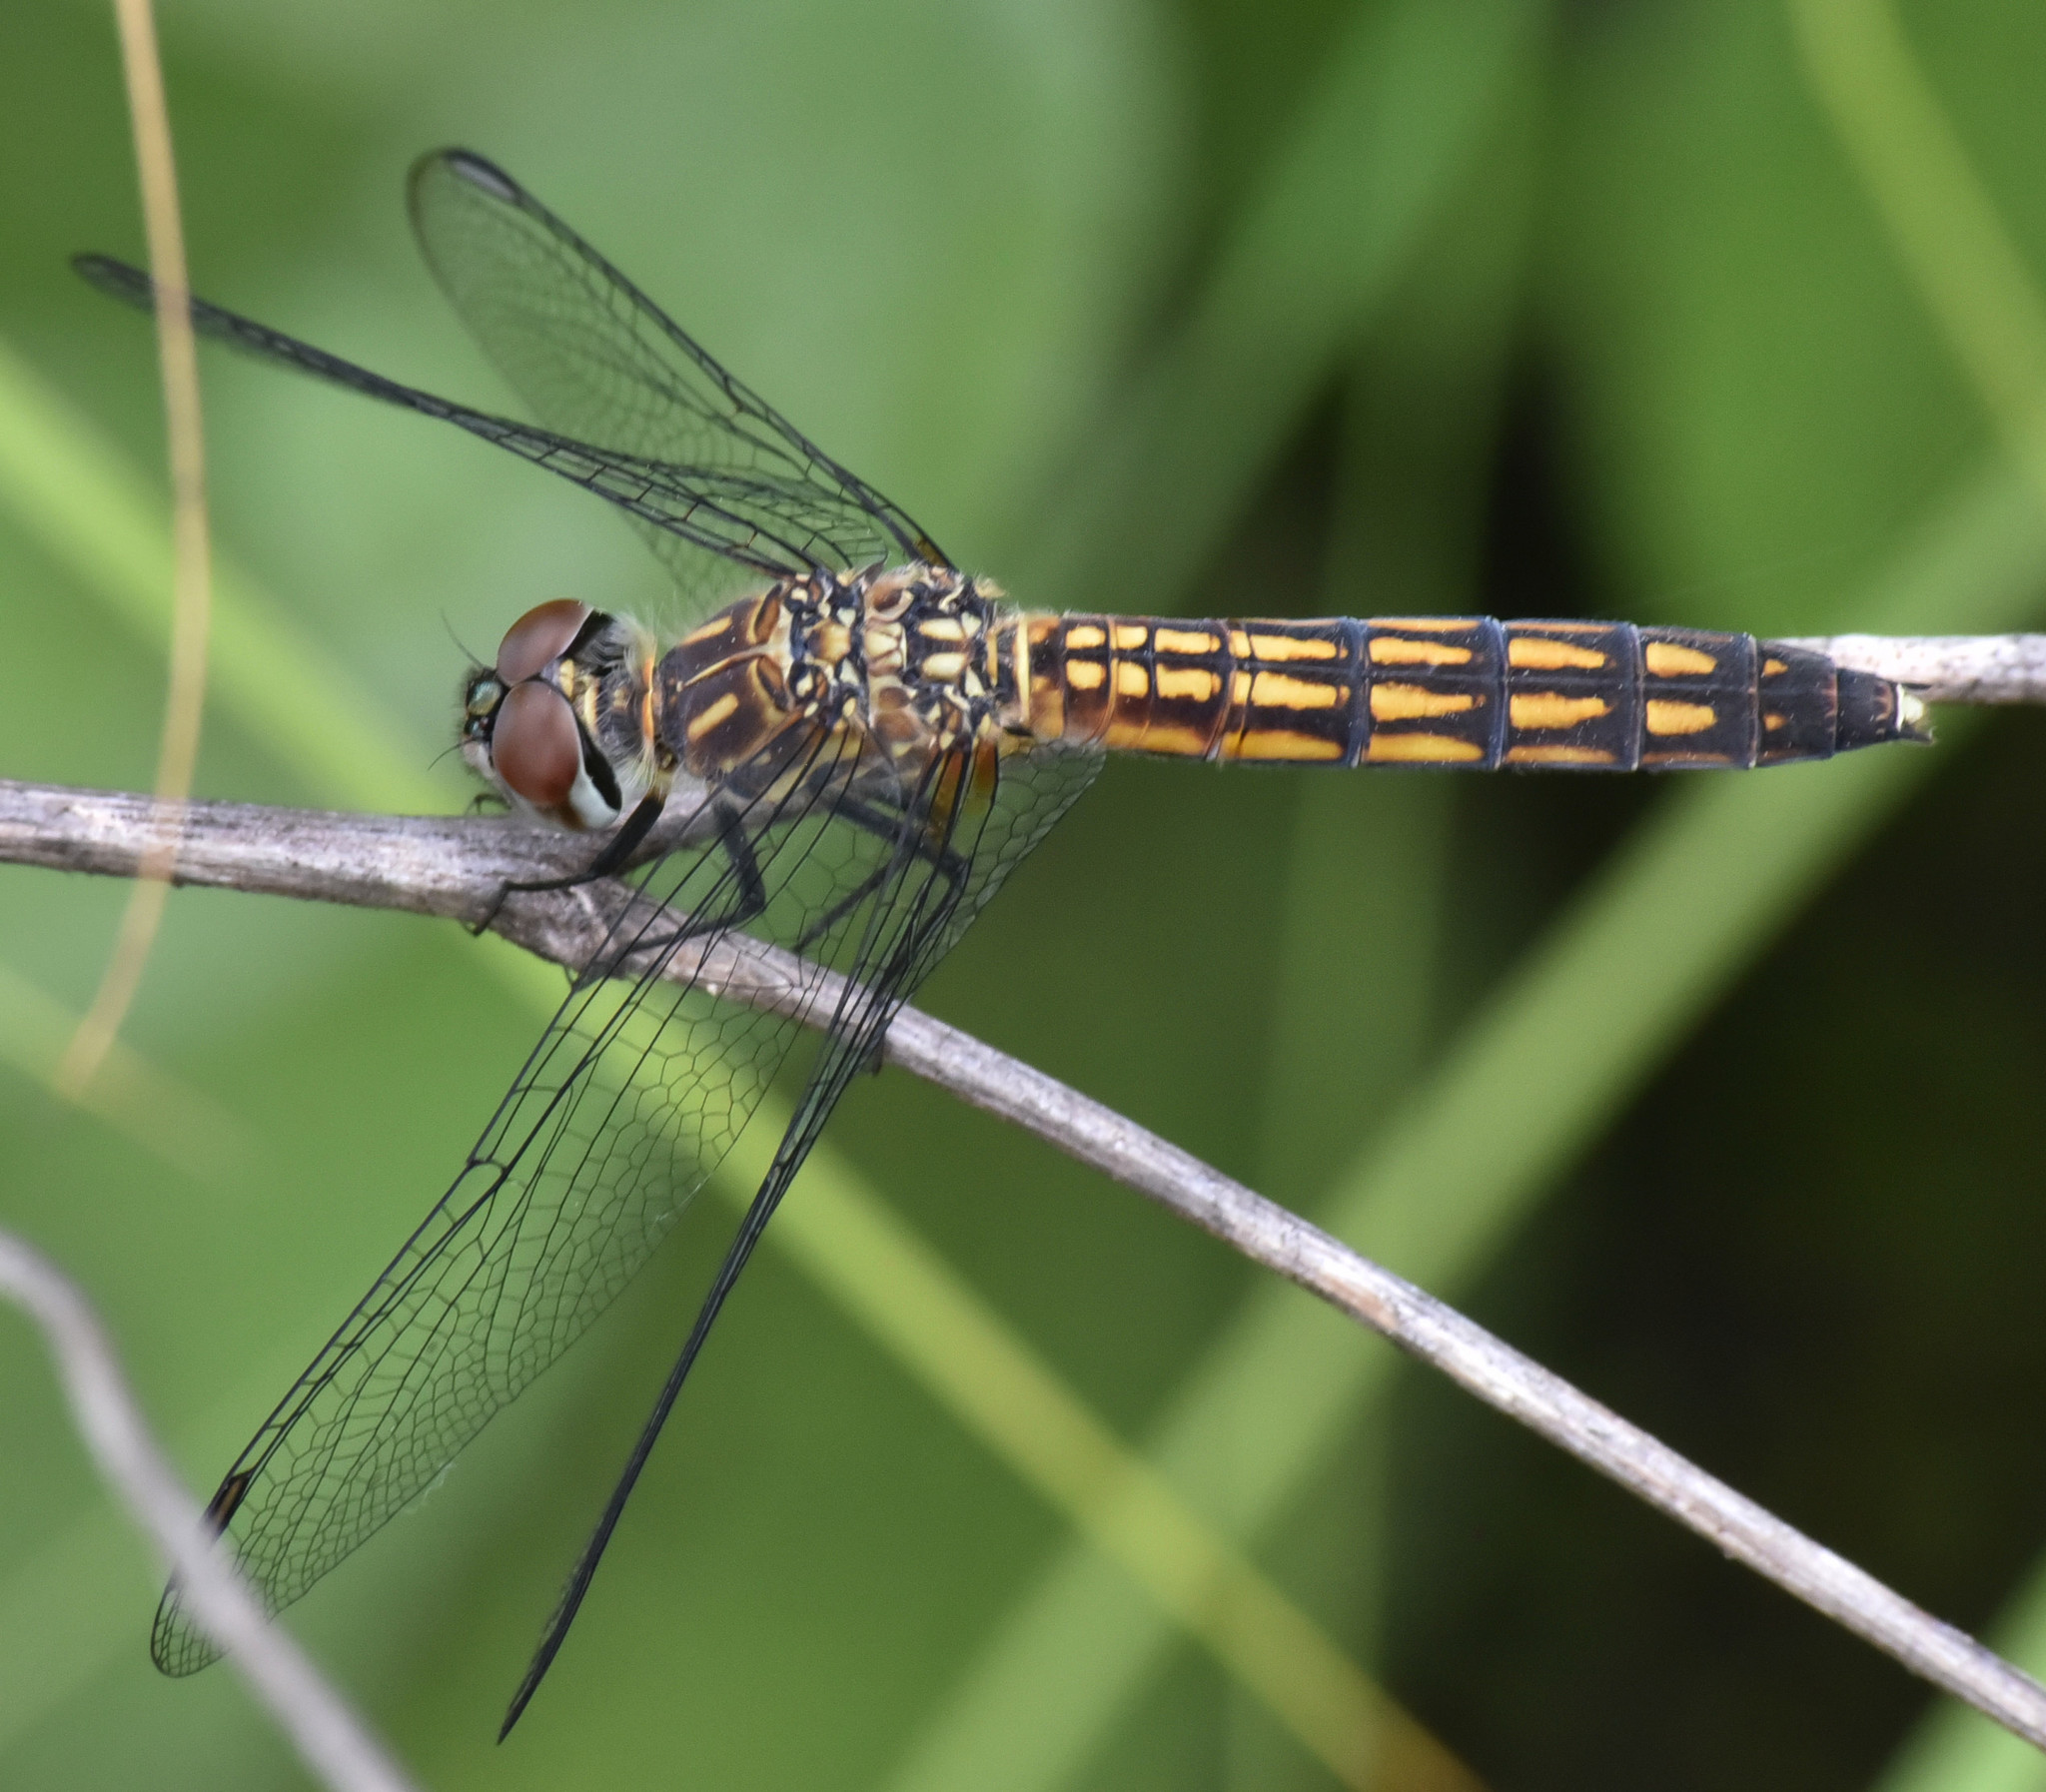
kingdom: Animalia
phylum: Arthropoda
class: Insecta
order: Odonata
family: Libellulidae
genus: Pachydiplax
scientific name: Pachydiplax longipennis
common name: Blue dasher
